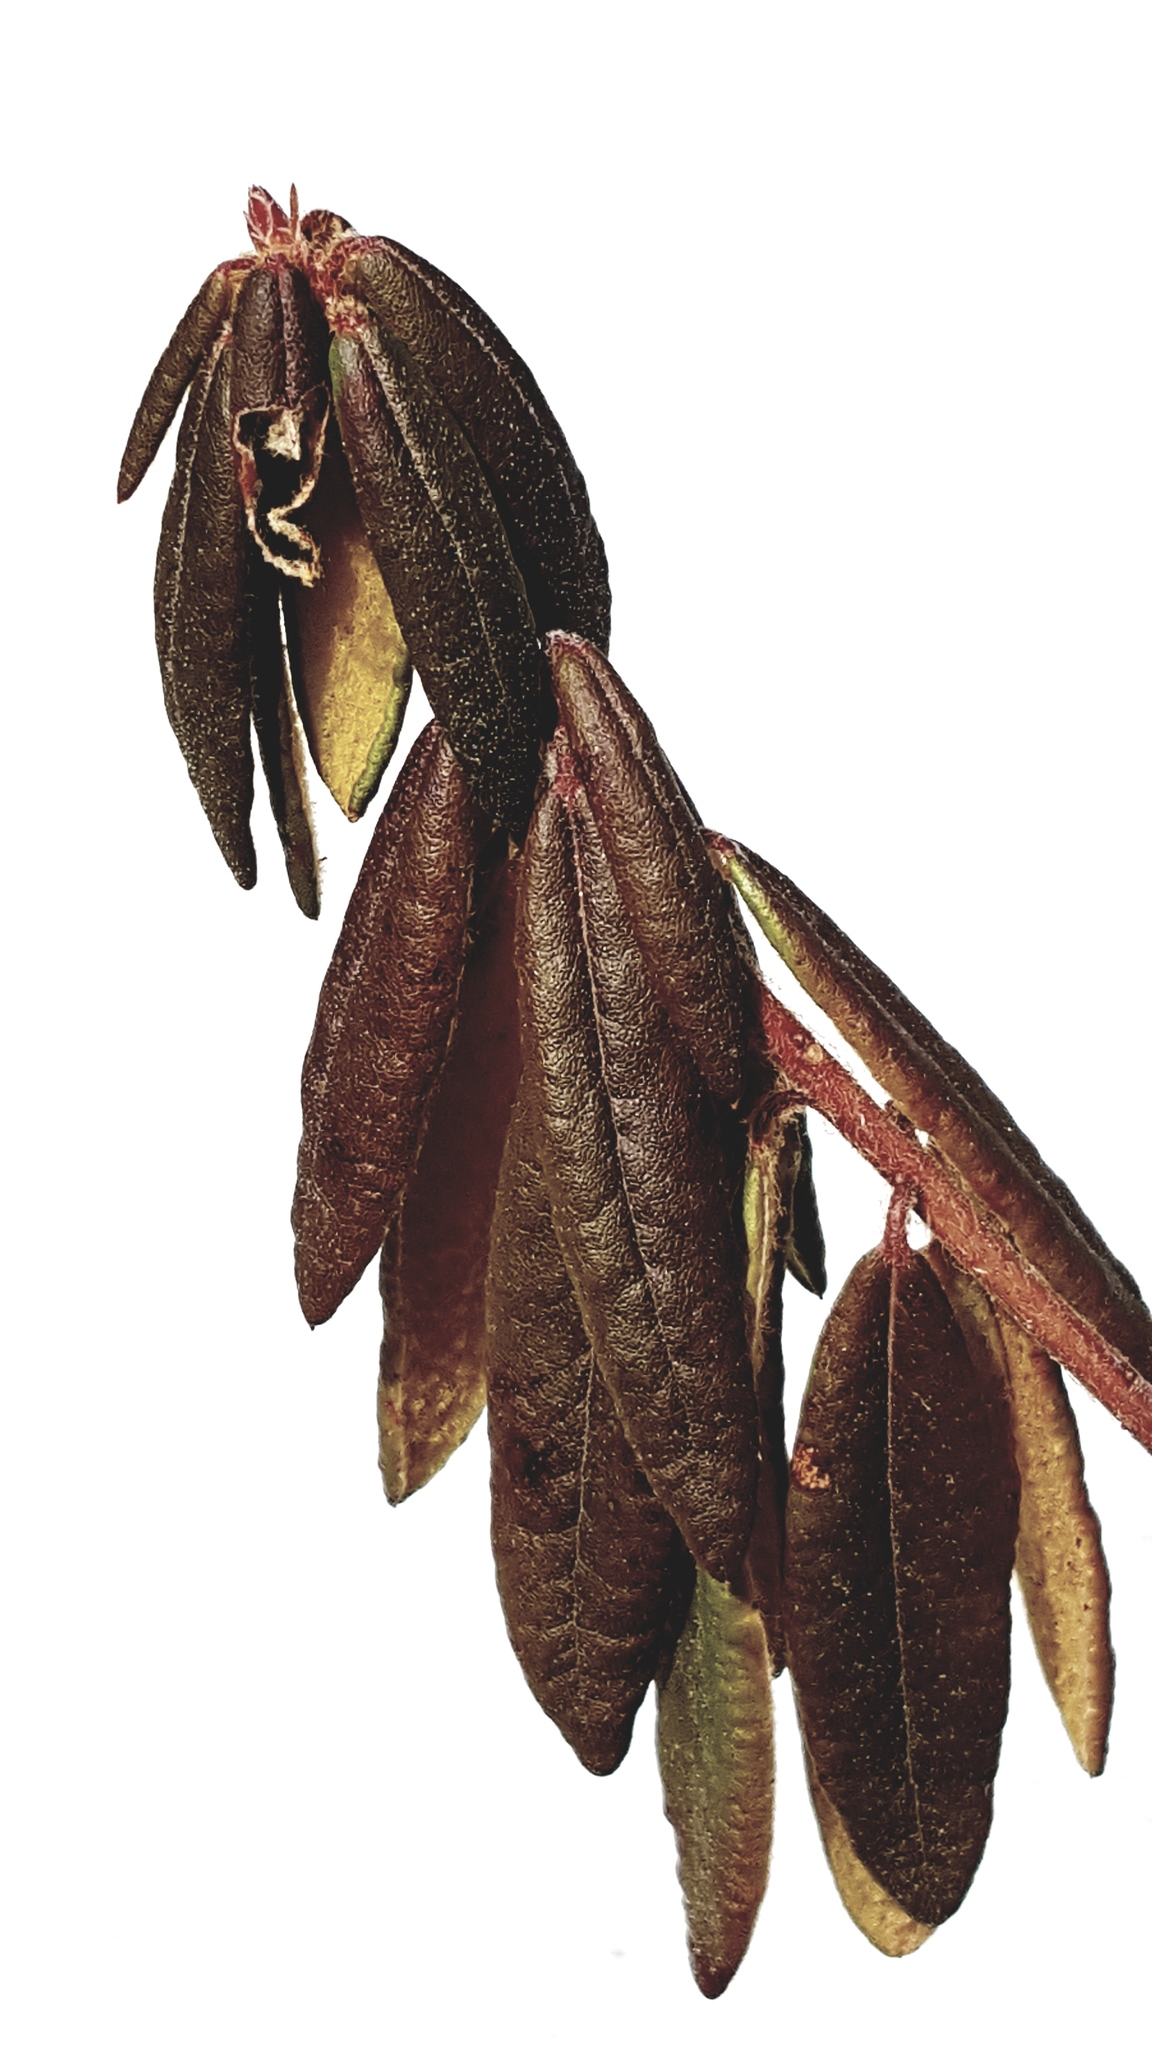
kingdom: Plantae
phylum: Tracheophyta
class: Magnoliopsida
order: Ericales
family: Ericaceae
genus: Rhododendron
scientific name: Rhododendron groenlandicum
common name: Bog labrador tea
